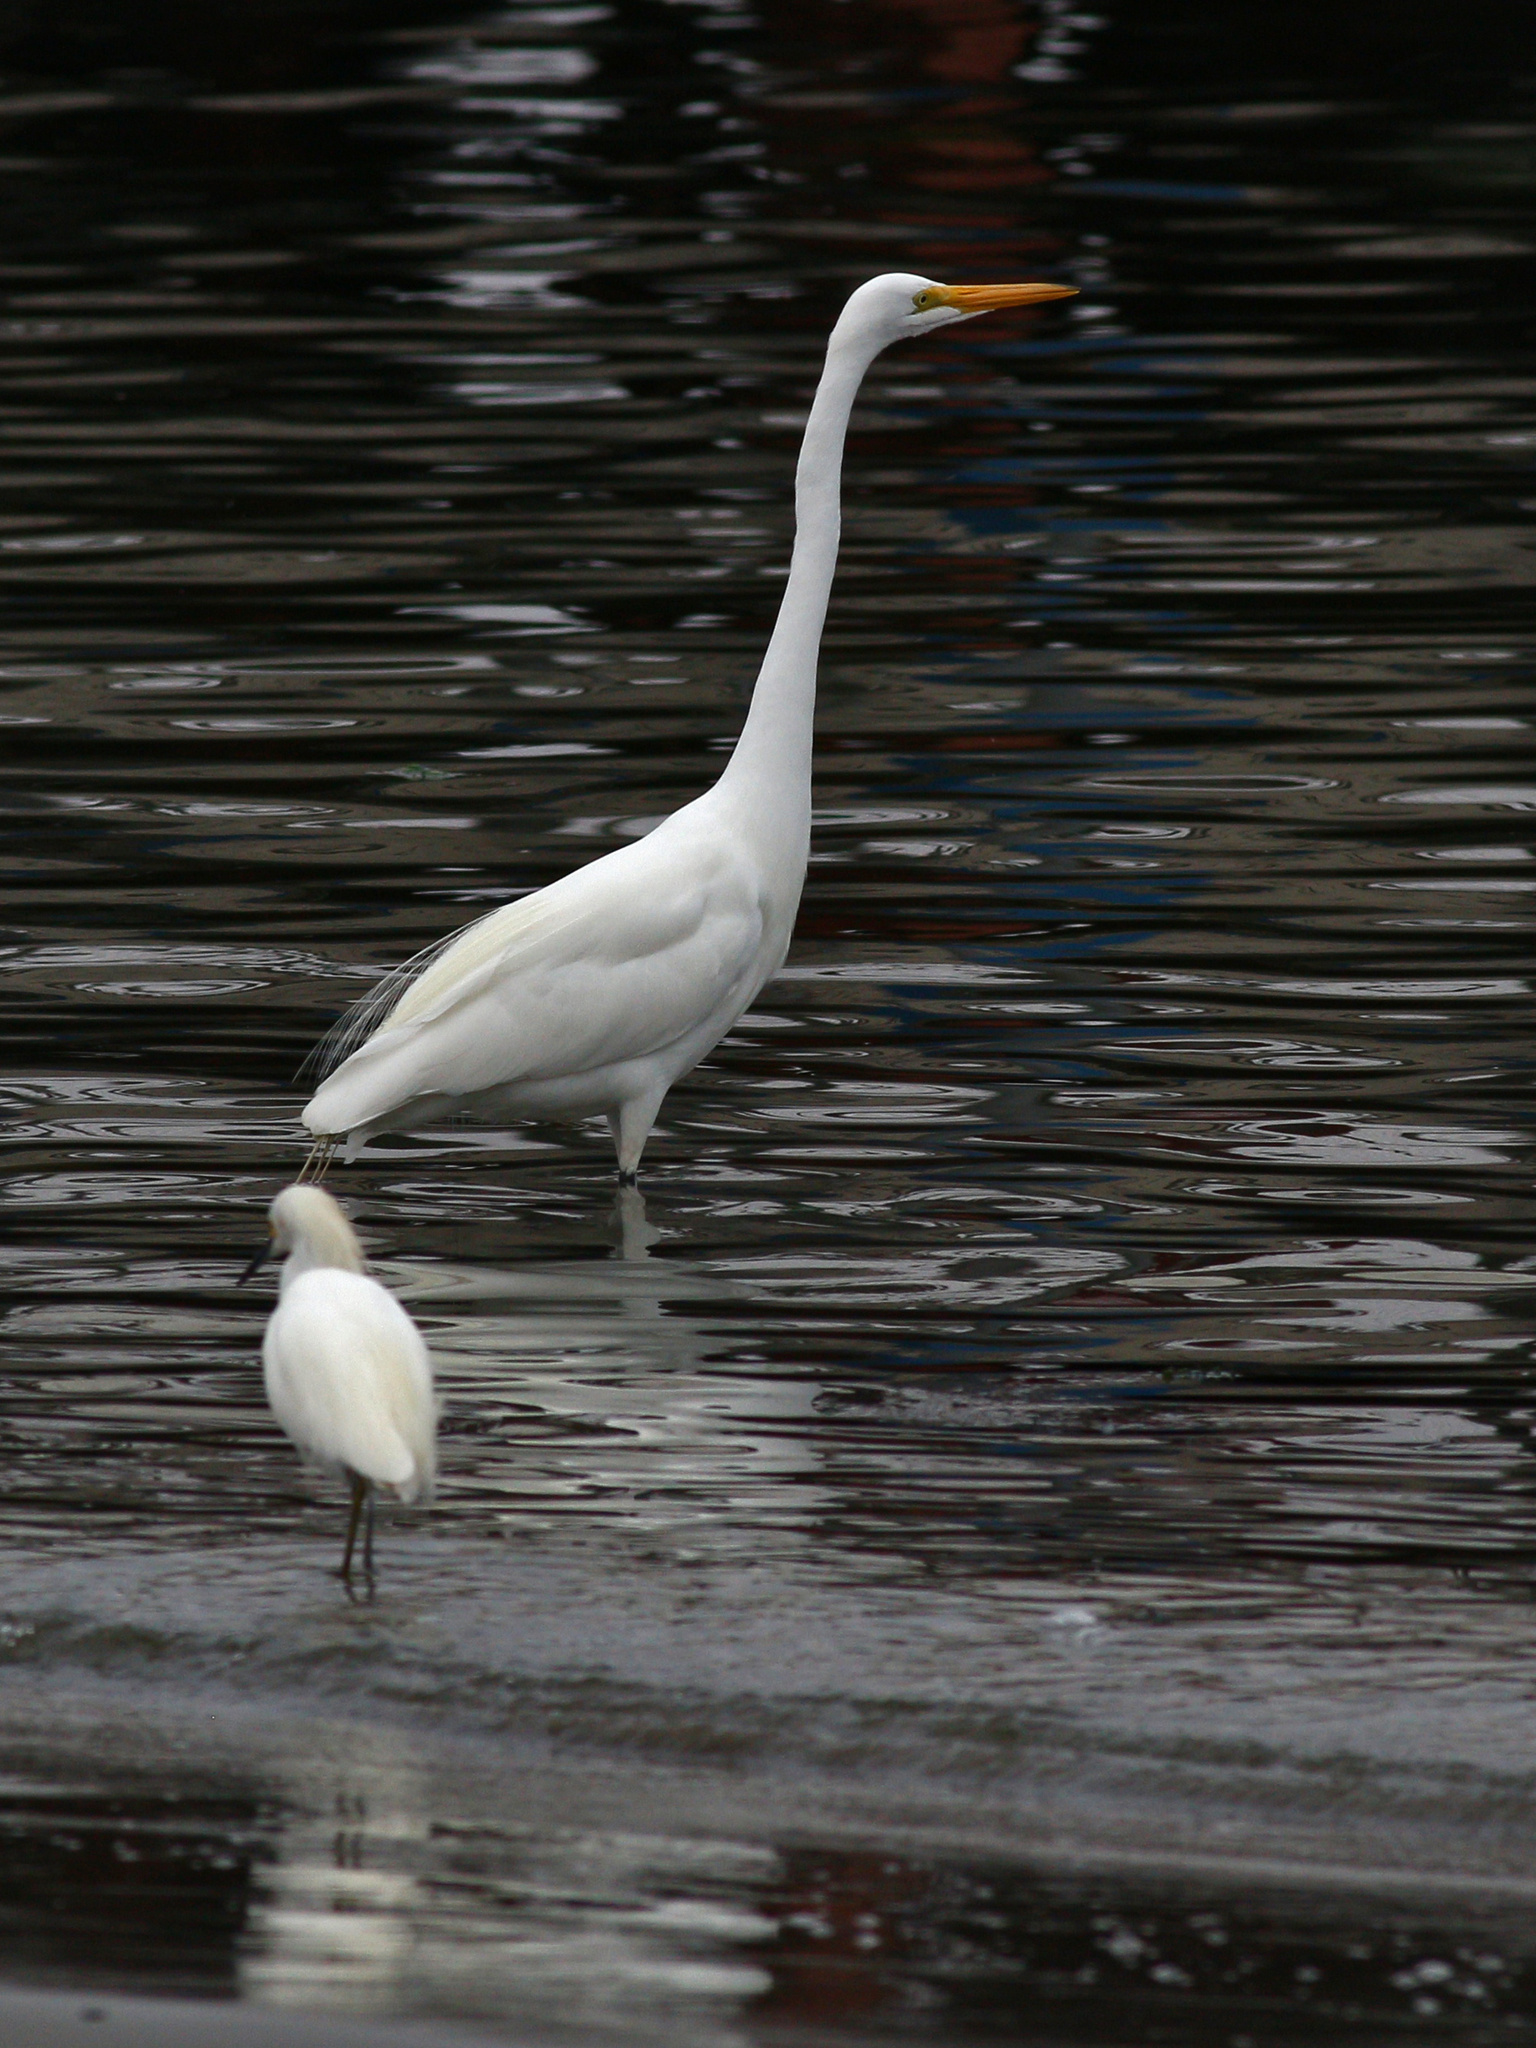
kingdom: Animalia
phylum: Chordata
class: Aves
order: Pelecaniformes
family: Ardeidae
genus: Ardea
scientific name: Ardea alba
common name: Great egret
